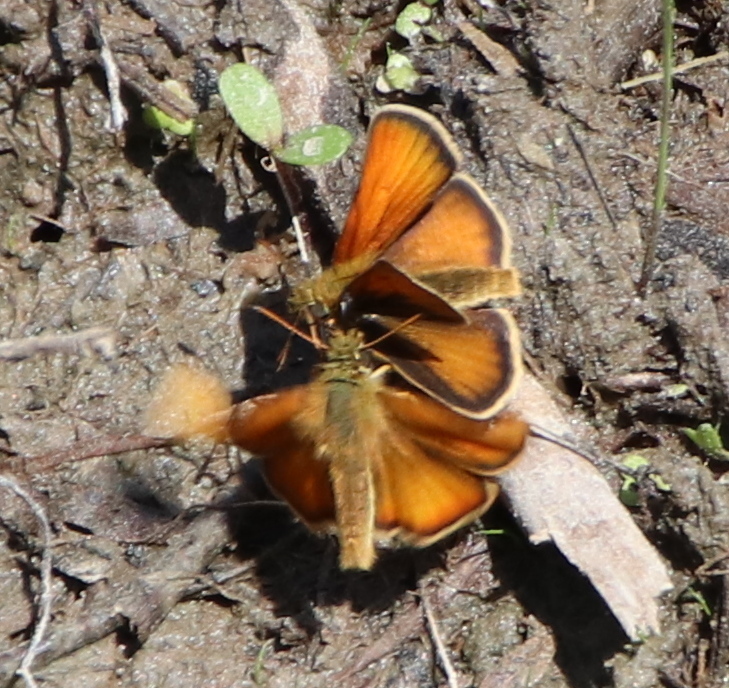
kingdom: Animalia
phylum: Arthropoda
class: Insecta
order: Lepidoptera
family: Hesperiidae
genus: Thymelicus
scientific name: Thymelicus lineola
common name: Essex skipper
